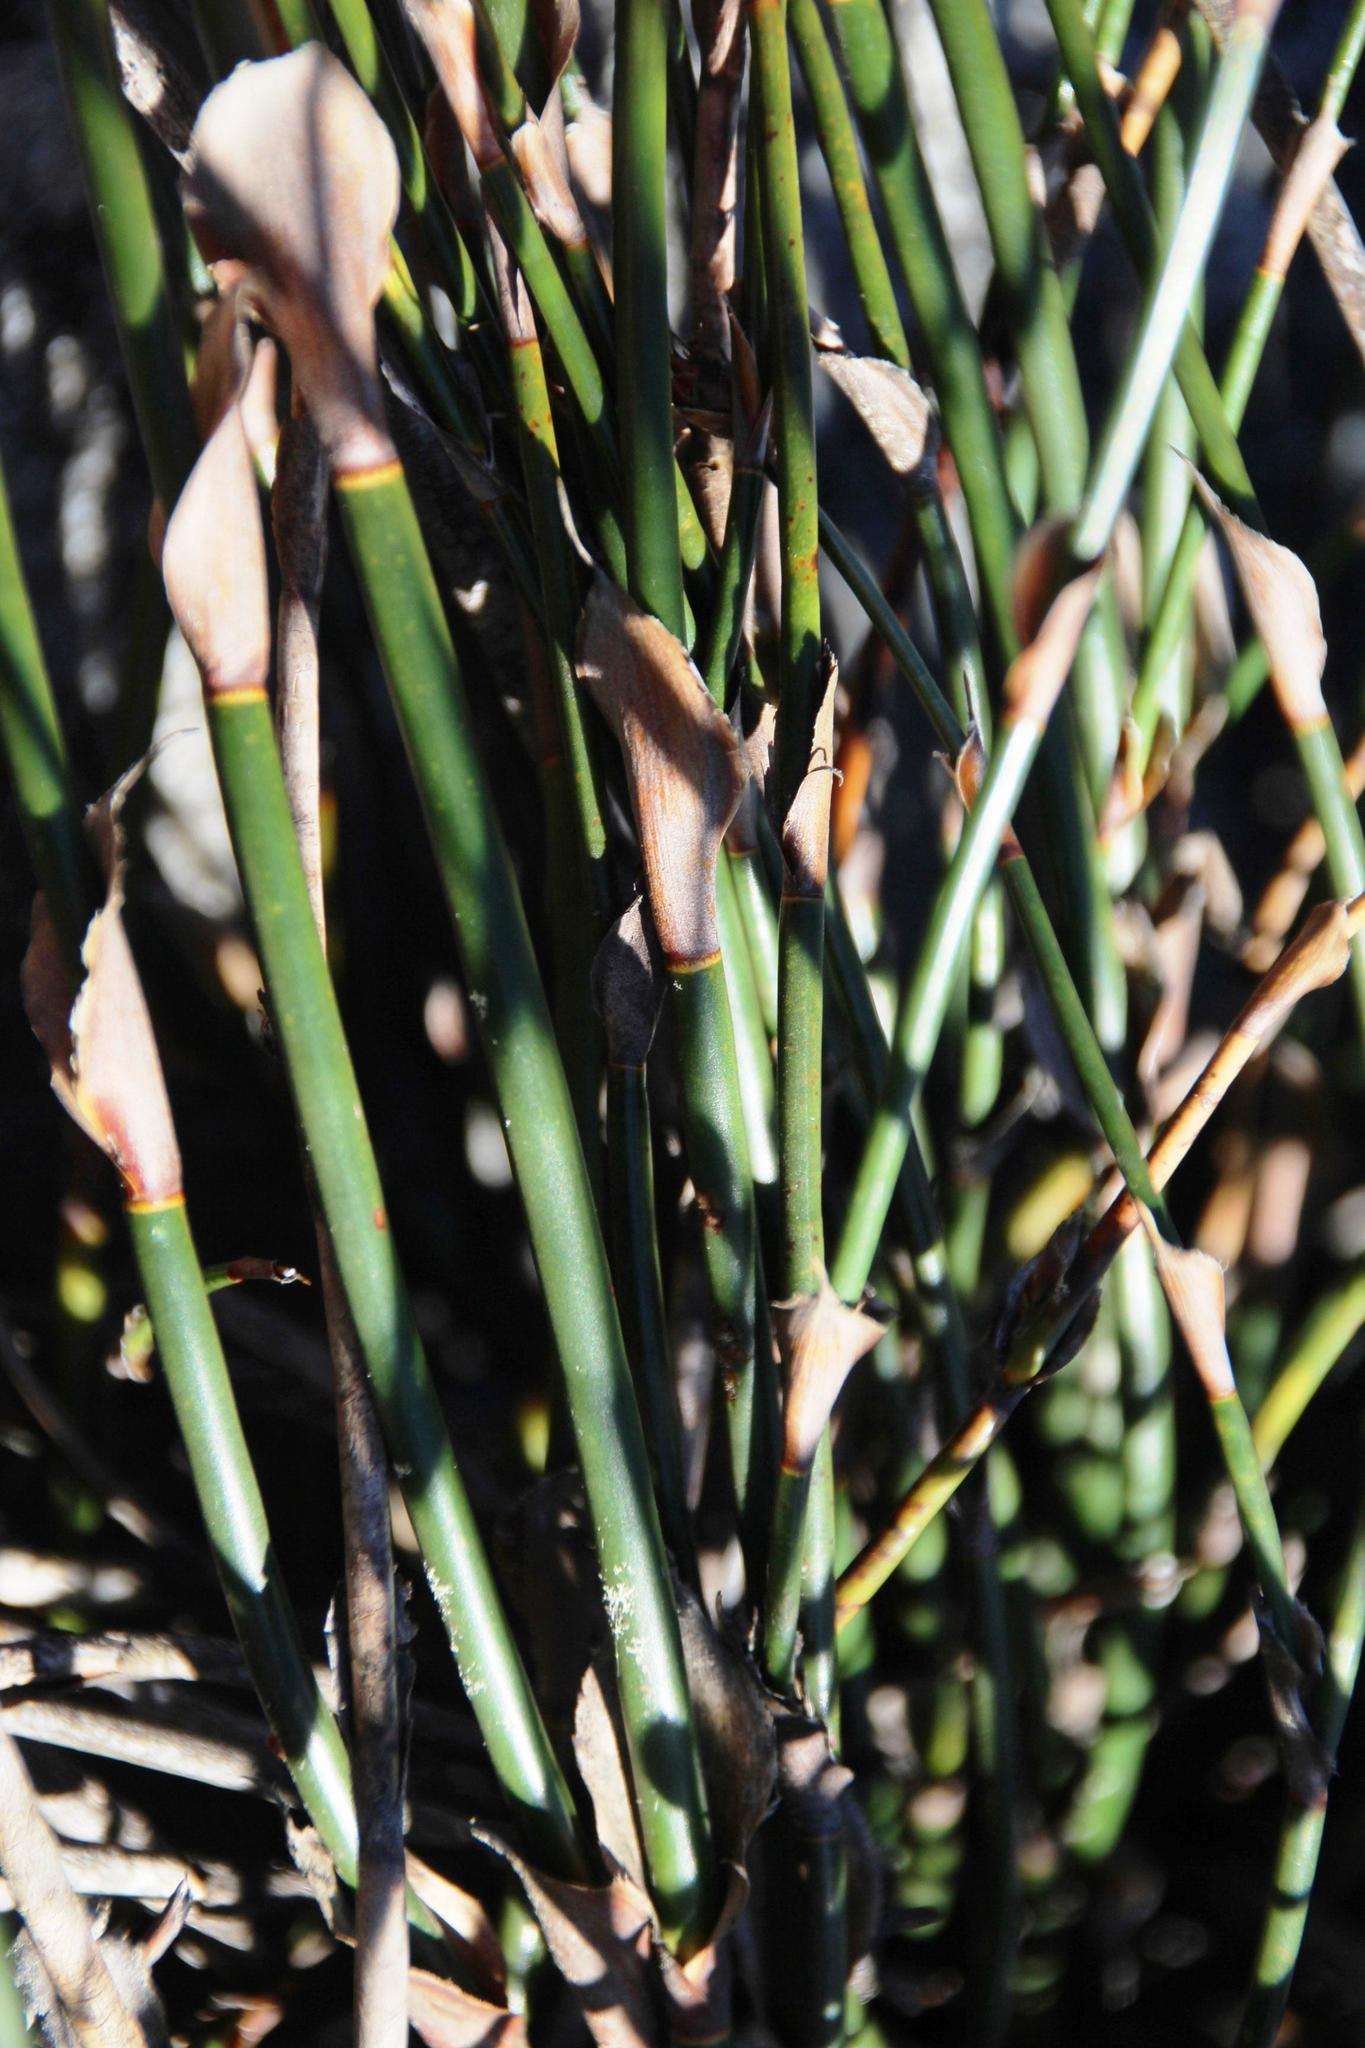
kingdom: Plantae
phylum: Tracheophyta
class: Liliopsida
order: Poales
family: Restionaceae
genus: Restio
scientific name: Restio fraternus
